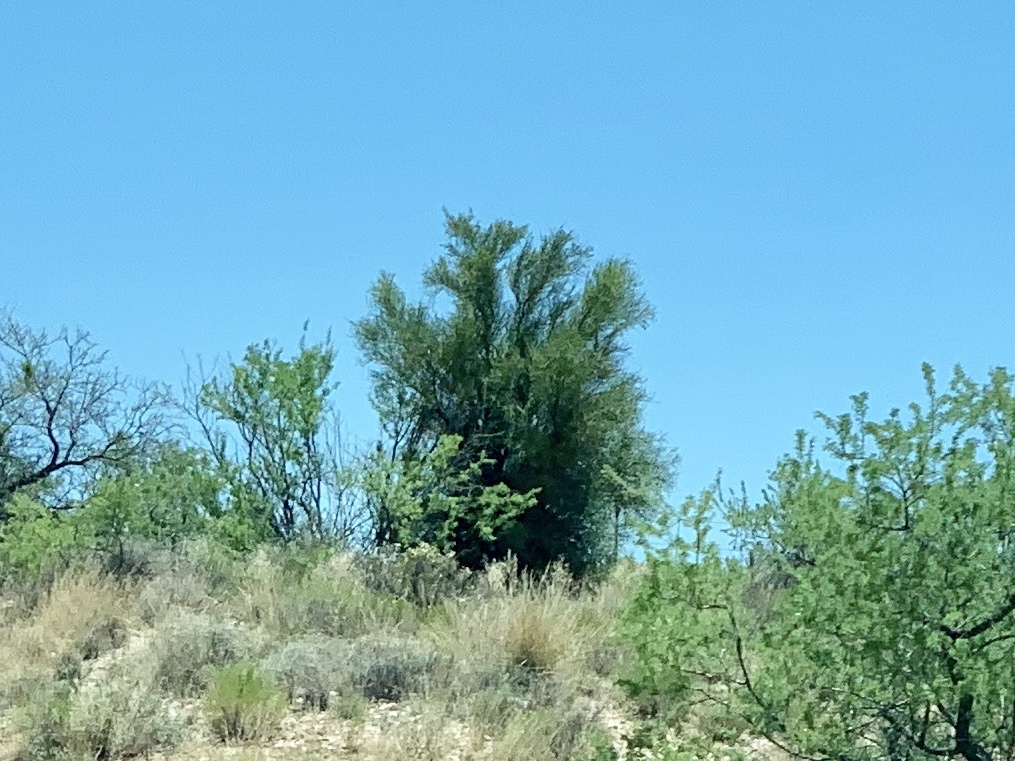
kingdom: Plantae
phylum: Tracheophyta
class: Magnoliopsida
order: Celastrales
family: Celastraceae
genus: Canotia
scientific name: Canotia holacantha
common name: Crucifixion thorns
